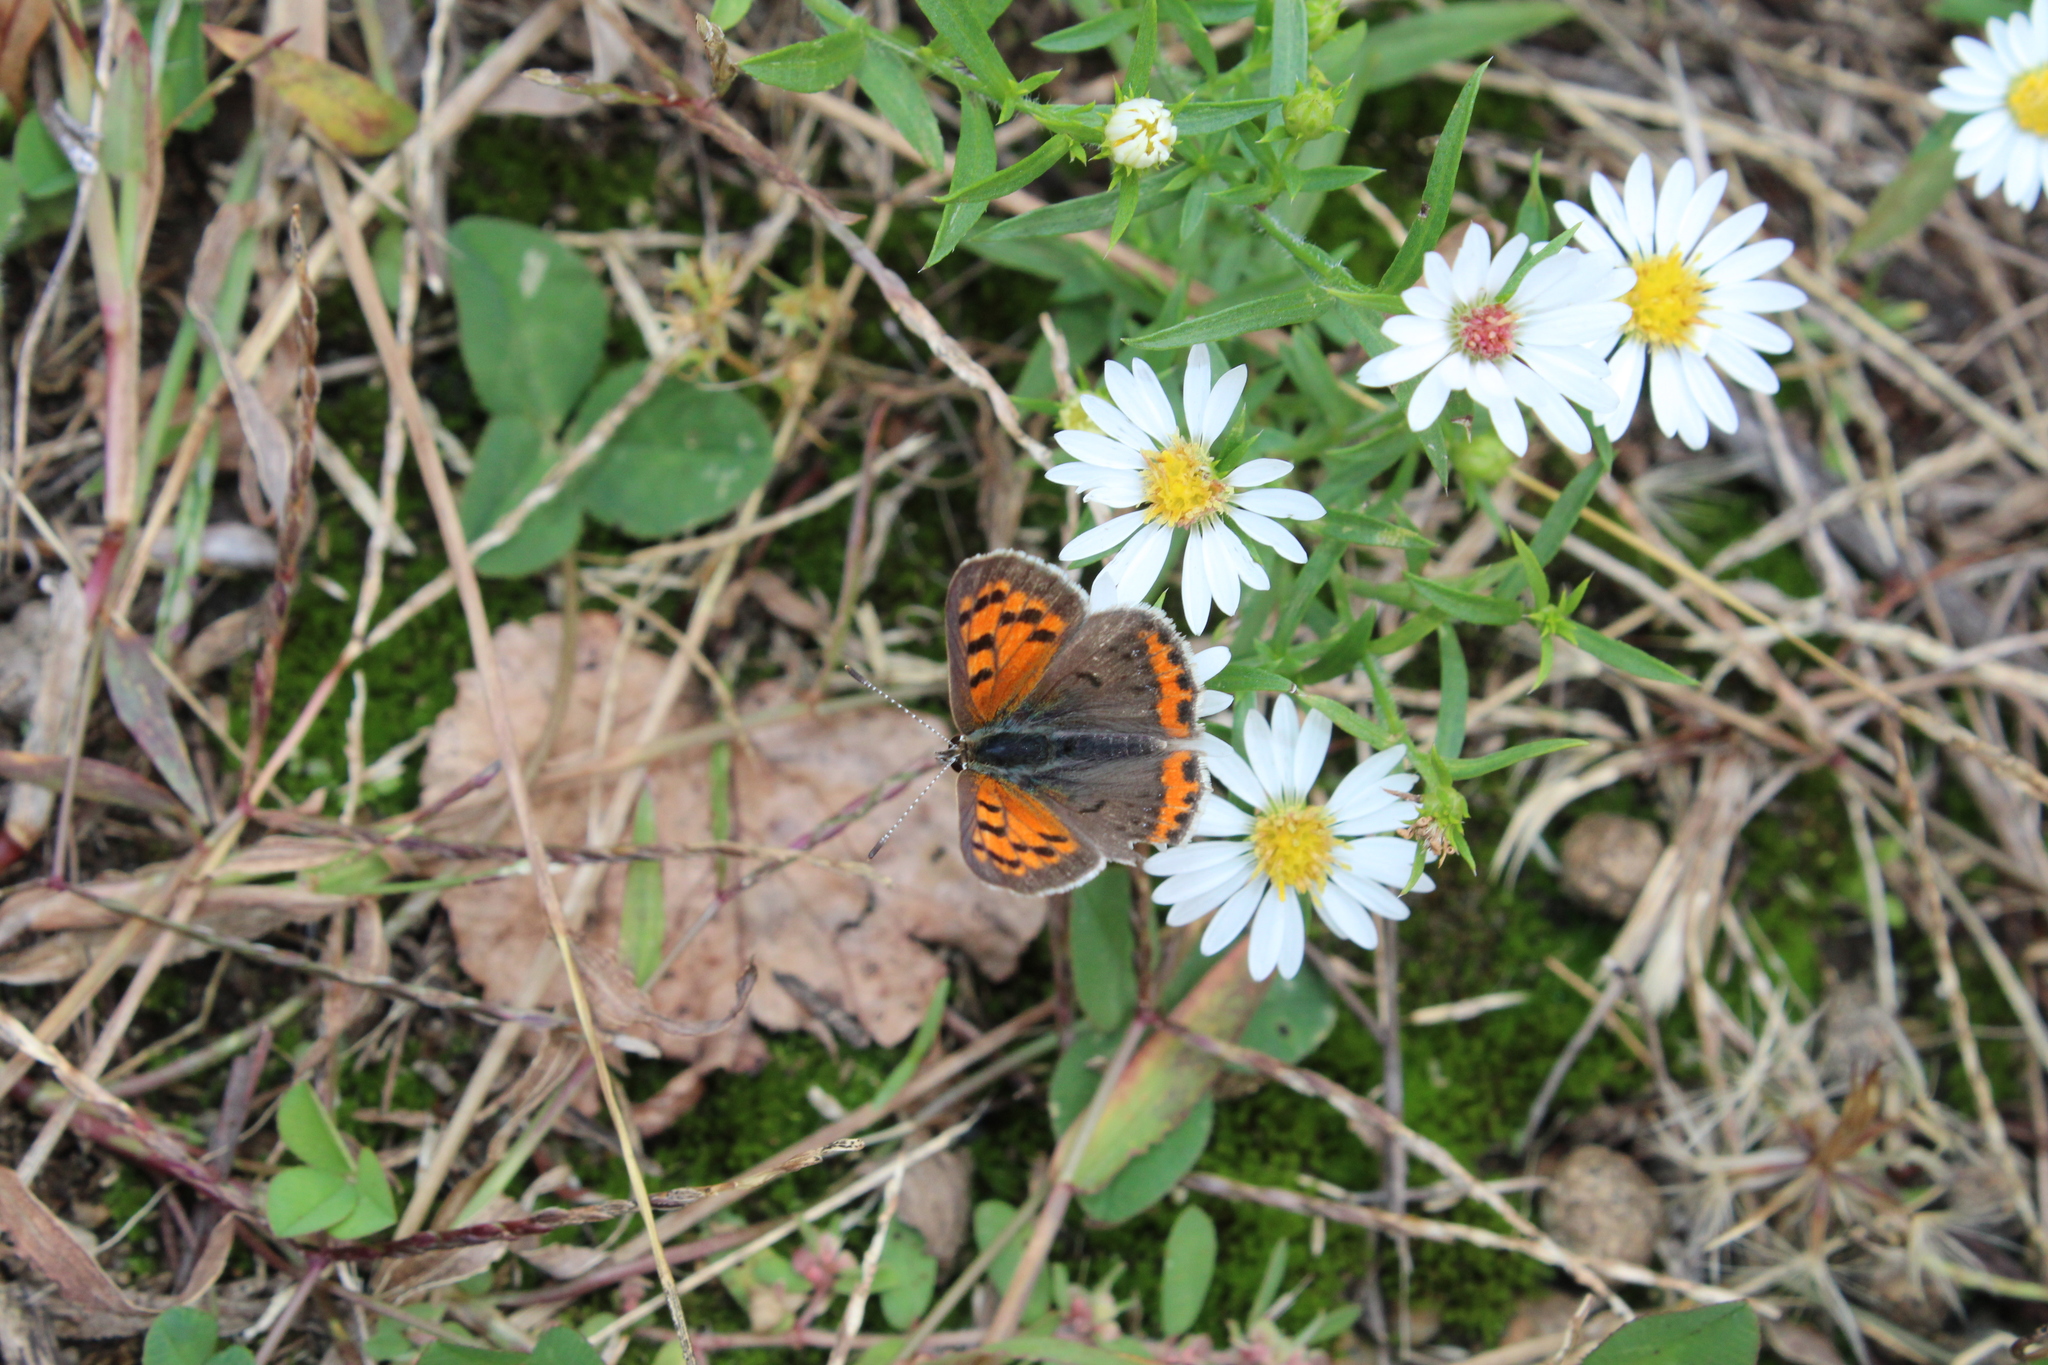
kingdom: Animalia
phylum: Arthropoda
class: Insecta
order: Lepidoptera
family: Lycaenidae
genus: Lycaena
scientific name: Lycaena hypophlaeas
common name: American copper
